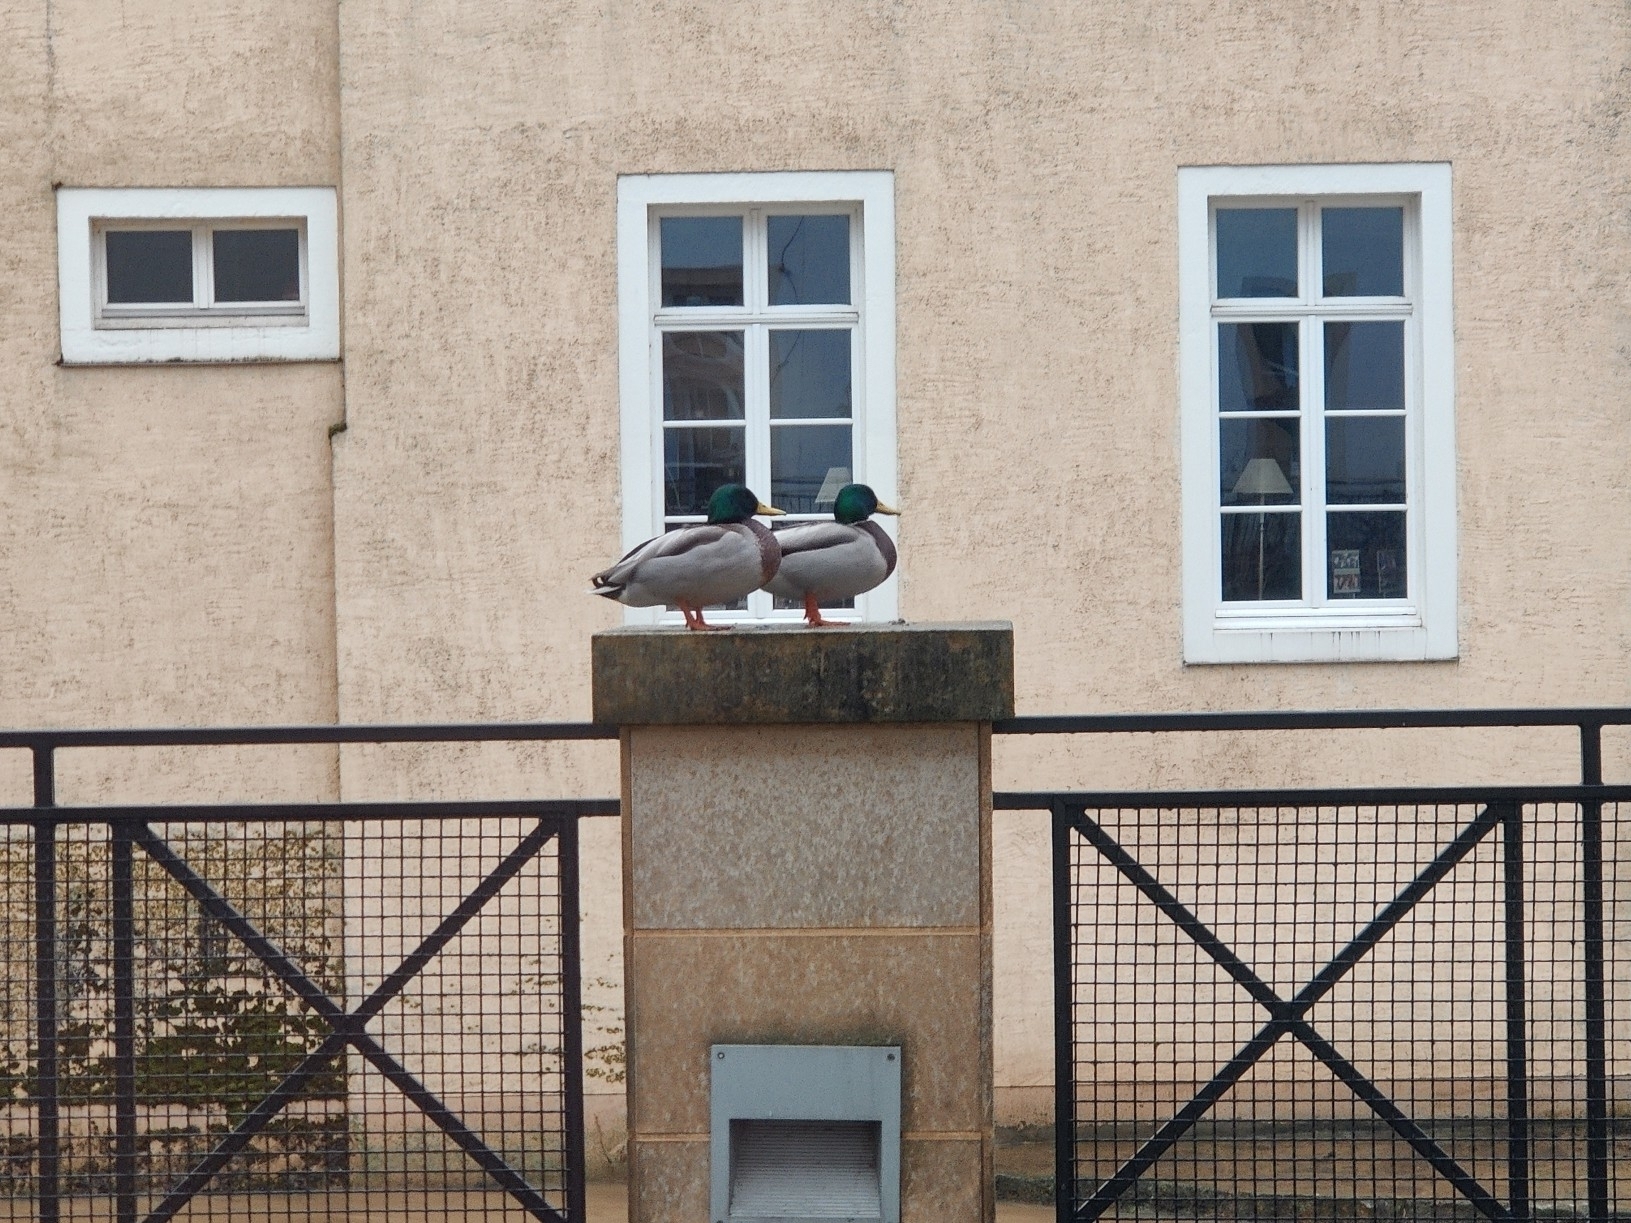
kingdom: Animalia
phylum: Chordata
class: Aves
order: Anseriformes
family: Anatidae
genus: Anas
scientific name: Anas platyrhynchos
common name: Mallard
